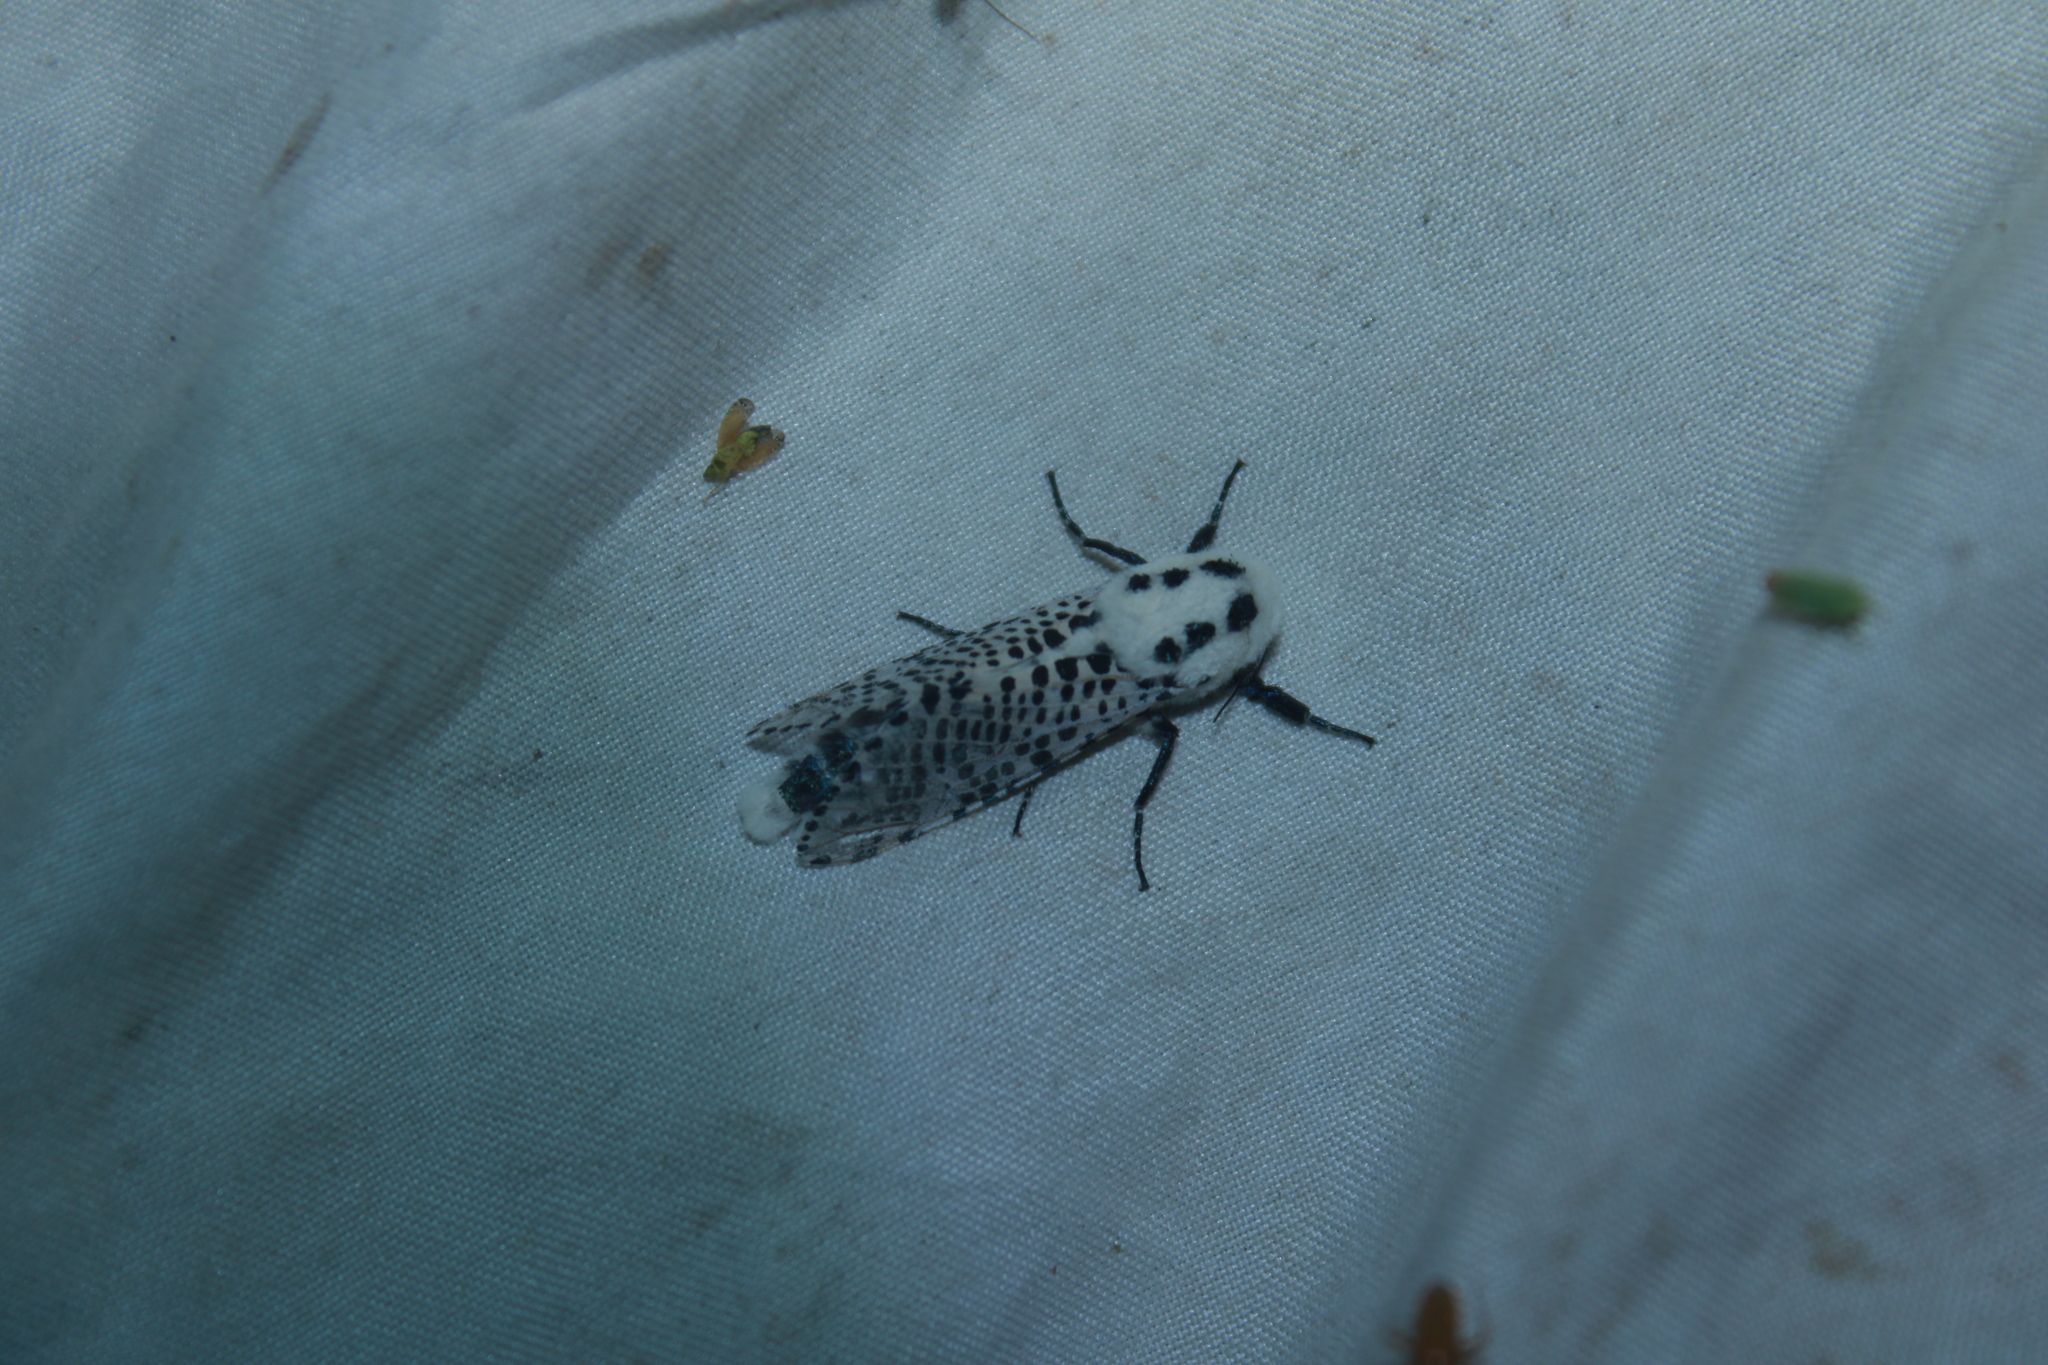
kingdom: Animalia
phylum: Arthropoda
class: Insecta
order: Lepidoptera
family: Cossidae
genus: Zeuzera
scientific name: Zeuzera pyrina
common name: Leopard moth
